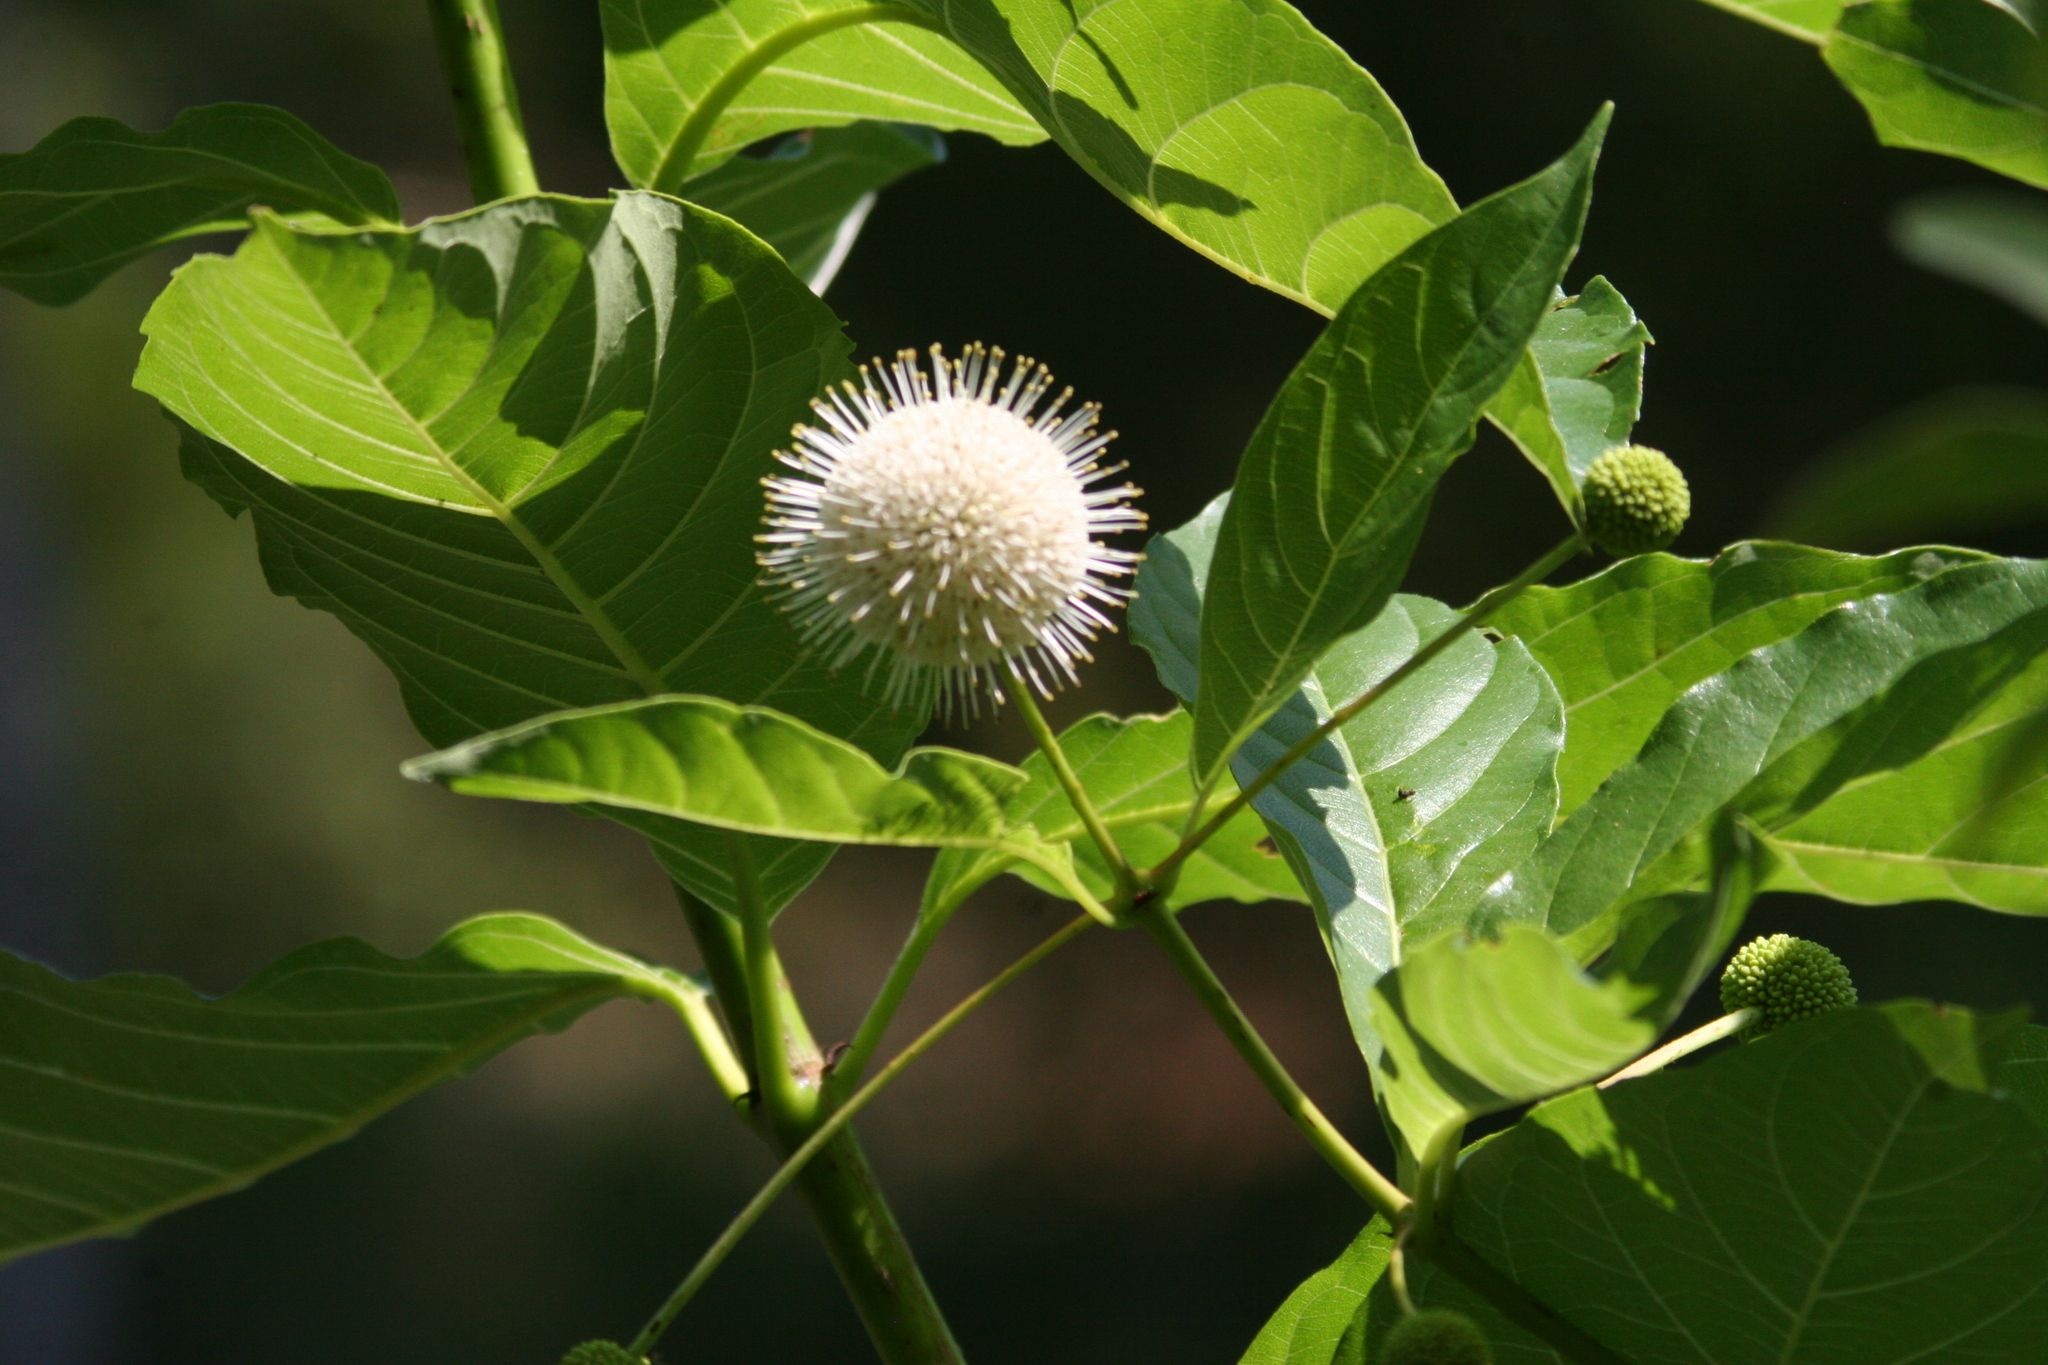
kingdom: Plantae
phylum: Tracheophyta
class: Magnoliopsida
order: Gentianales
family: Rubiaceae
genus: Cephalanthus
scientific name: Cephalanthus occidentalis
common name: Button-willow
